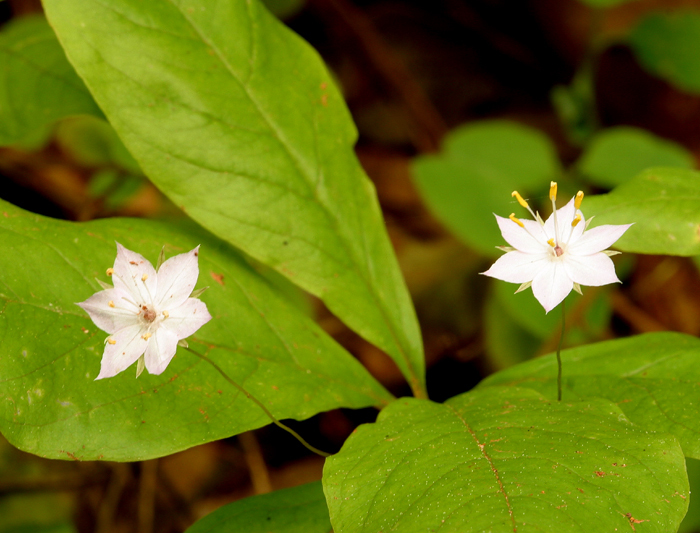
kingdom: Plantae
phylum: Tracheophyta
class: Magnoliopsida
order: Ericales
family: Primulaceae
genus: Lysimachia
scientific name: Lysimachia latifolia
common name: Pacific starflower
